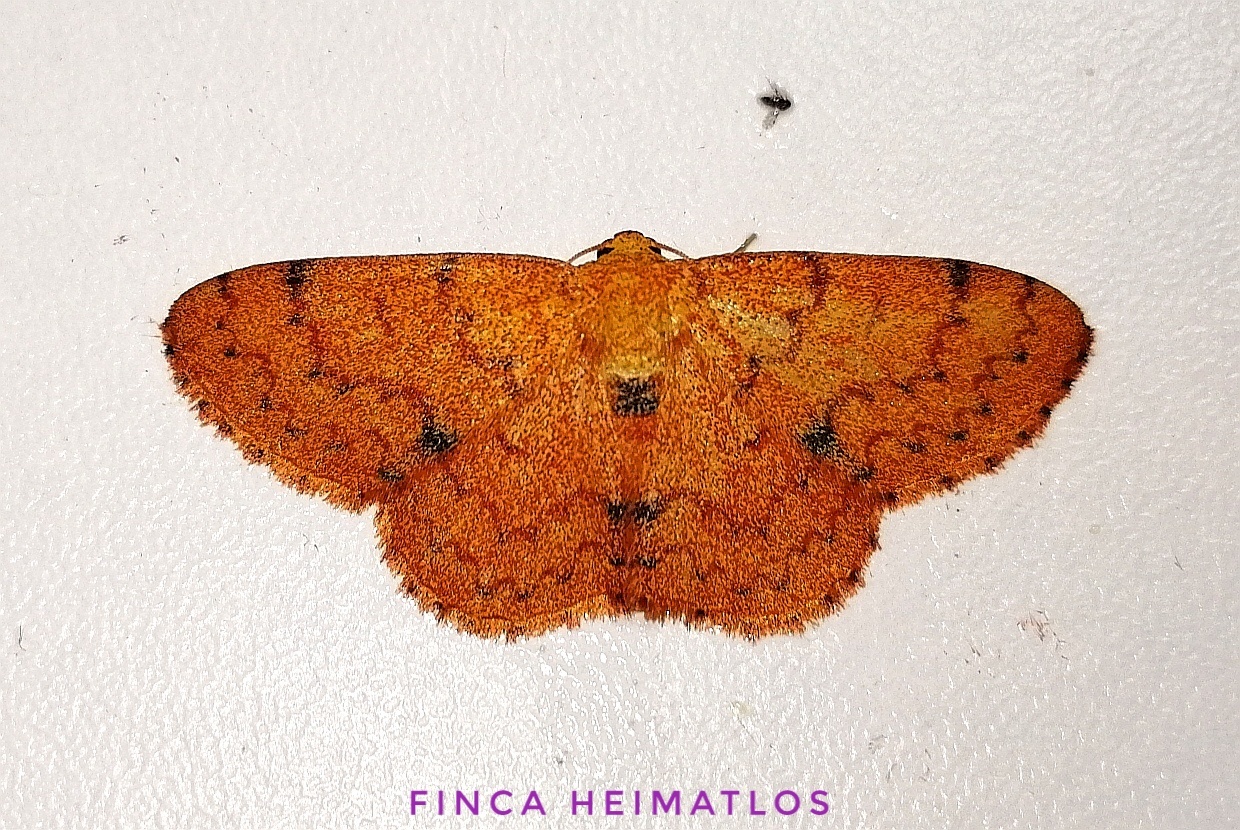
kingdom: Animalia
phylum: Arthropoda
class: Insecta
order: Lepidoptera
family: Geometridae
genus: Semaeopus
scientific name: Semaeopus rubida
